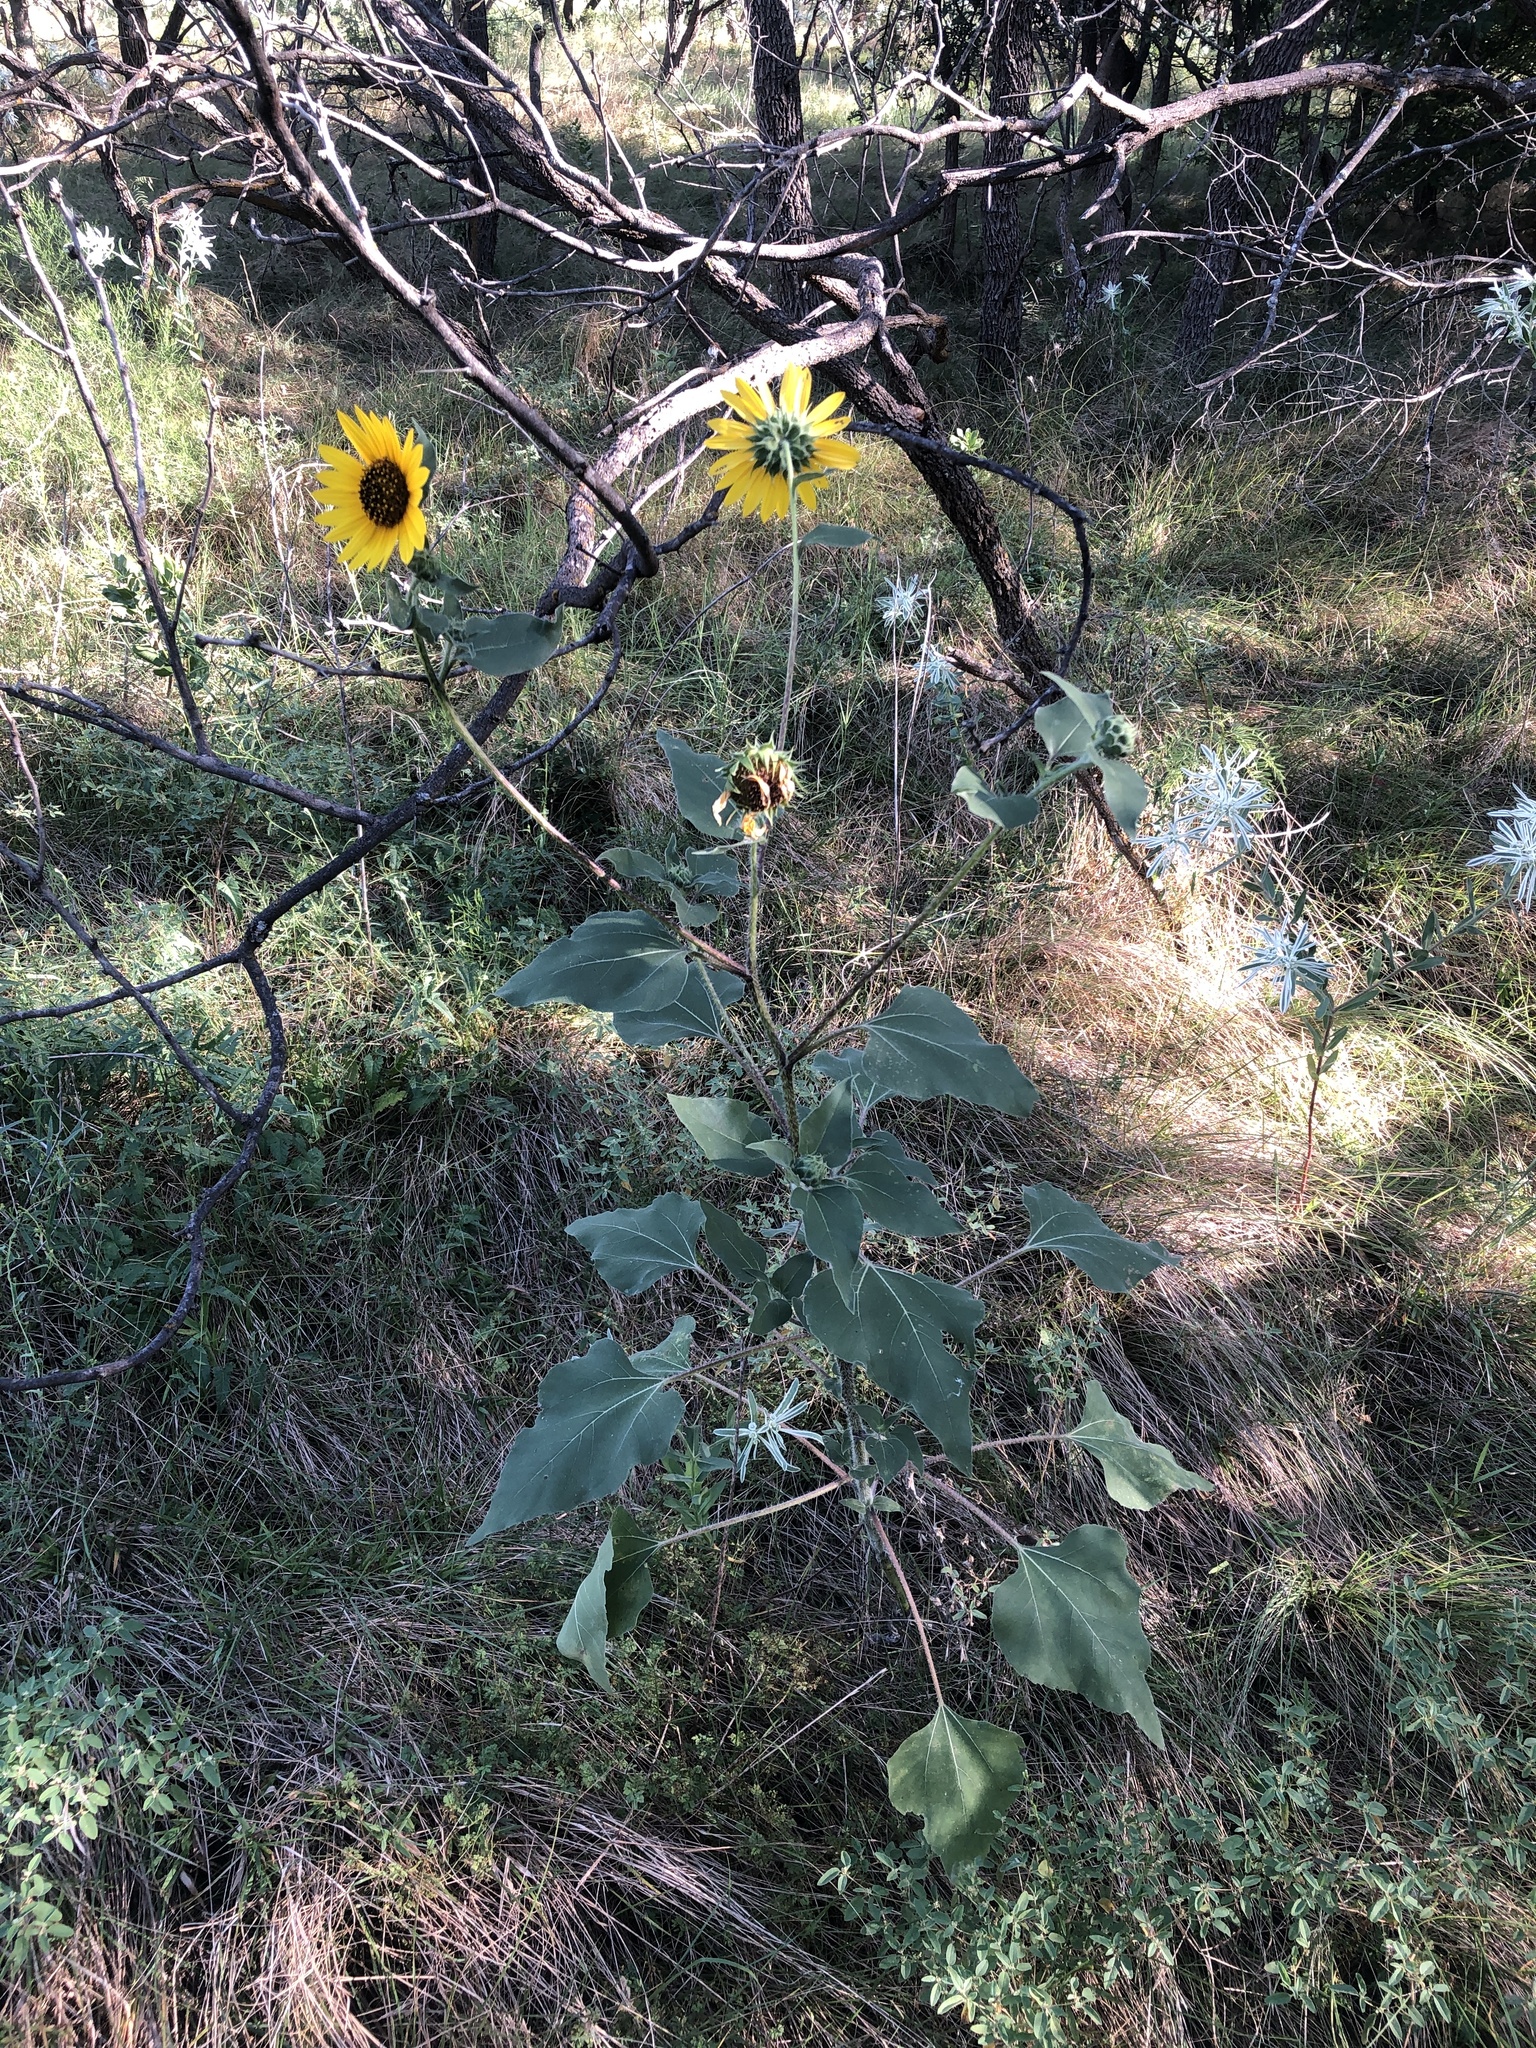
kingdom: Plantae
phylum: Tracheophyta
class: Magnoliopsida
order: Asterales
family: Asteraceae
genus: Helianthus
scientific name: Helianthus annuus
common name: Sunflower
